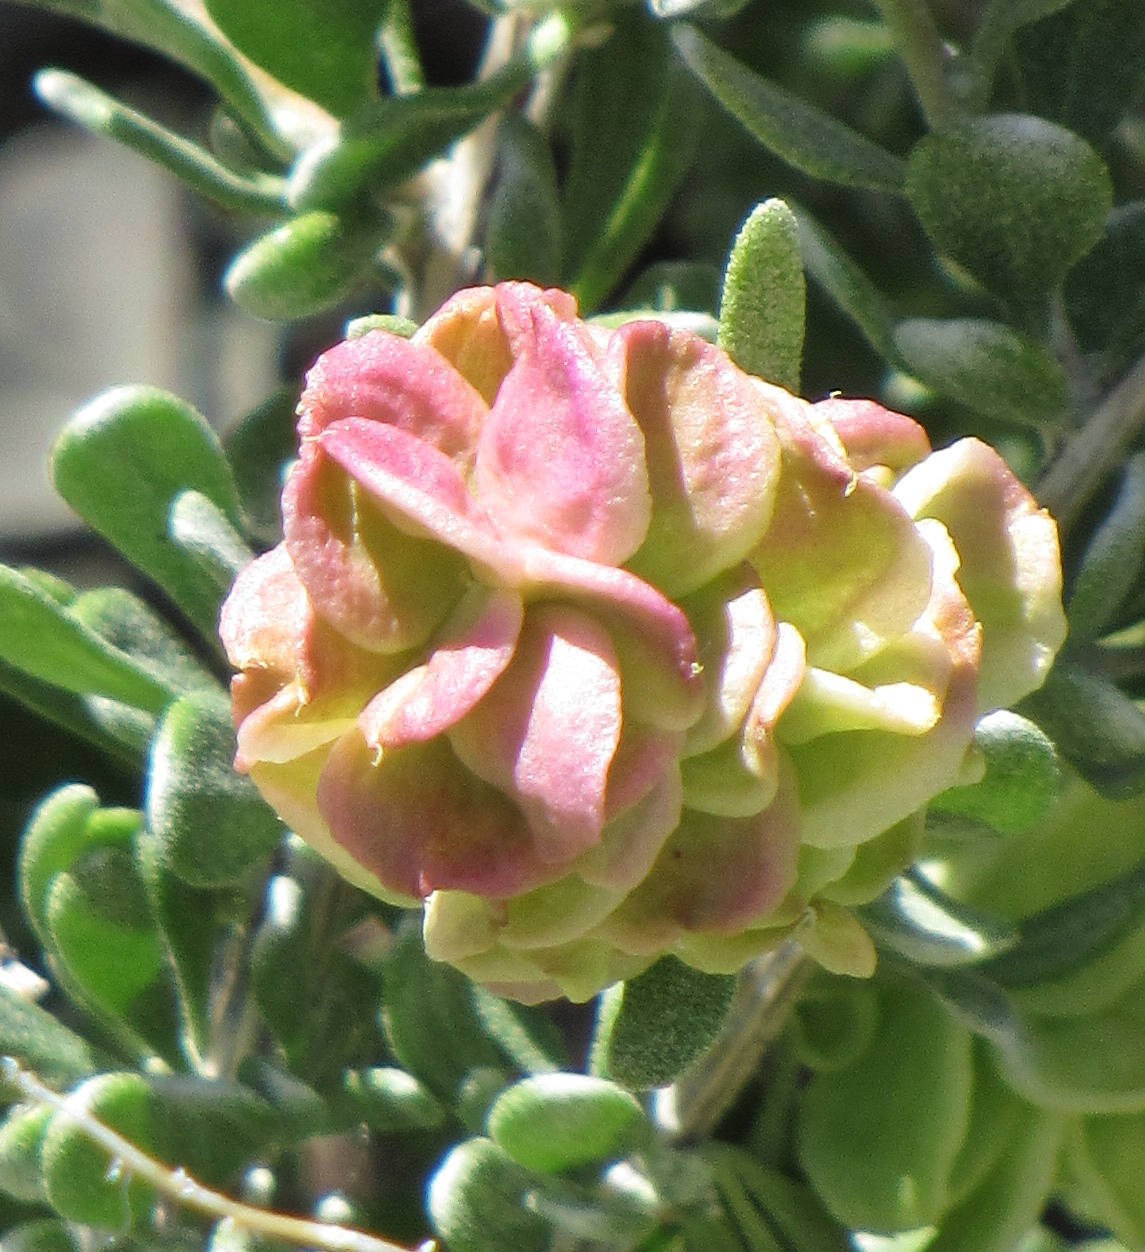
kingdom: Plantae
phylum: Tracheophyta
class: Magnoliopsida
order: Caryophyllales
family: Amaranthaceae
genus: Grayia
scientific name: Grayia spinosa
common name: Spiny hopsage
